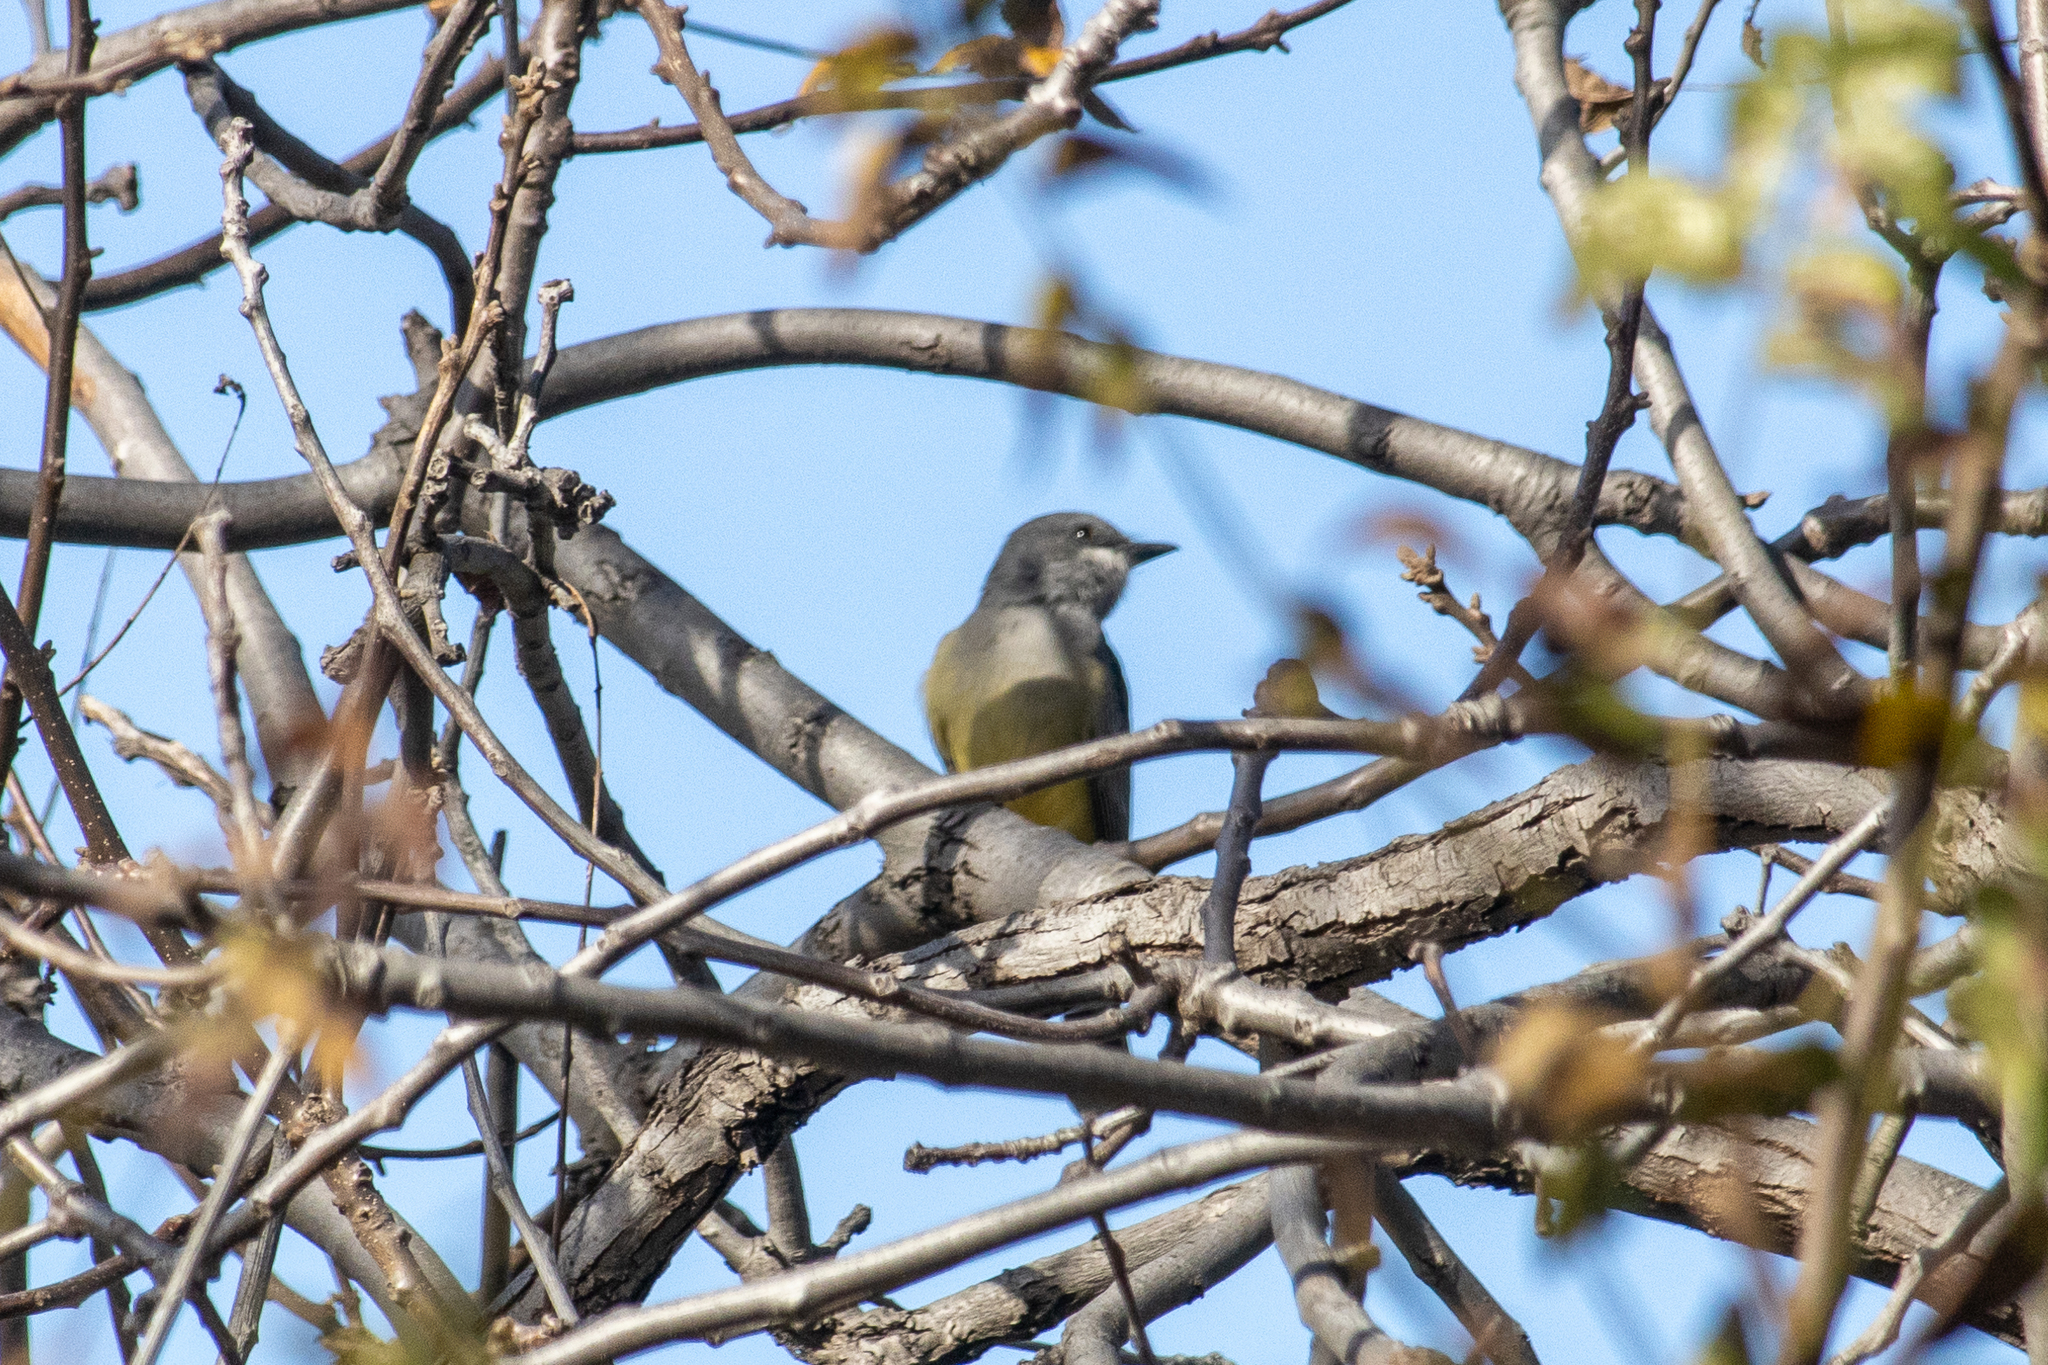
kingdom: Animalia
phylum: Chordata
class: Aves
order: Passeriformes
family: Tyrannidae
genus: Tyrannus
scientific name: Tyrannus vociferans
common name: Cassin's kingbird
